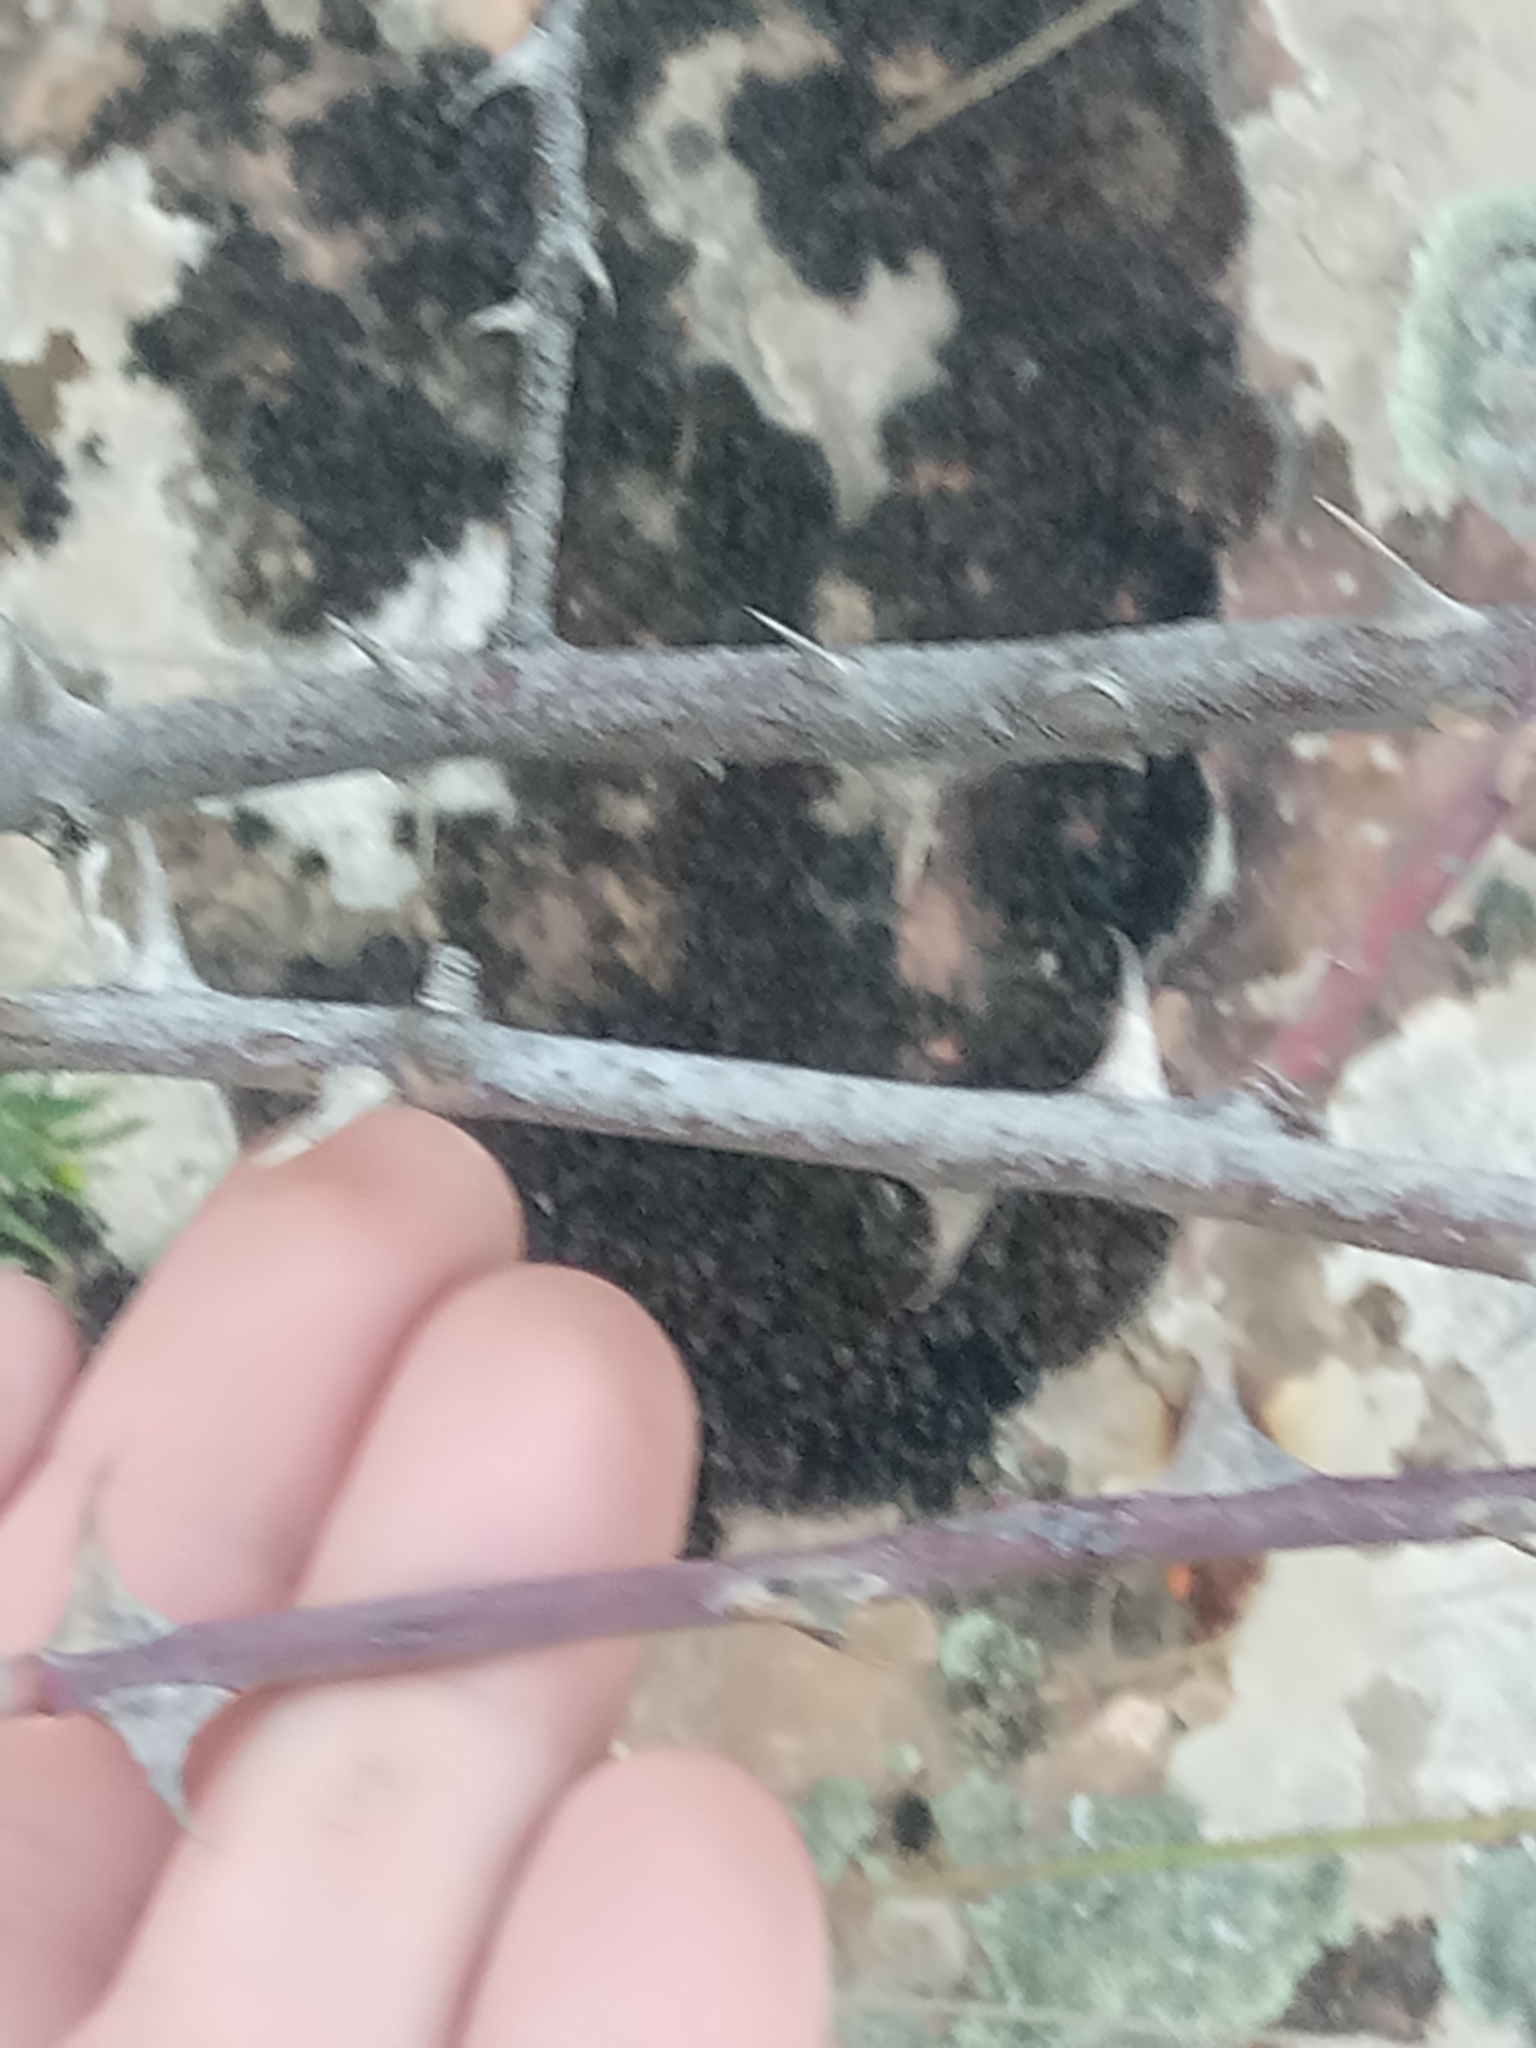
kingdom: Plantae
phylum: Tracheophyta
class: Magnoliopsida
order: Rosales
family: Rosaceae
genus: Rosa
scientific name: Rosa inodora
